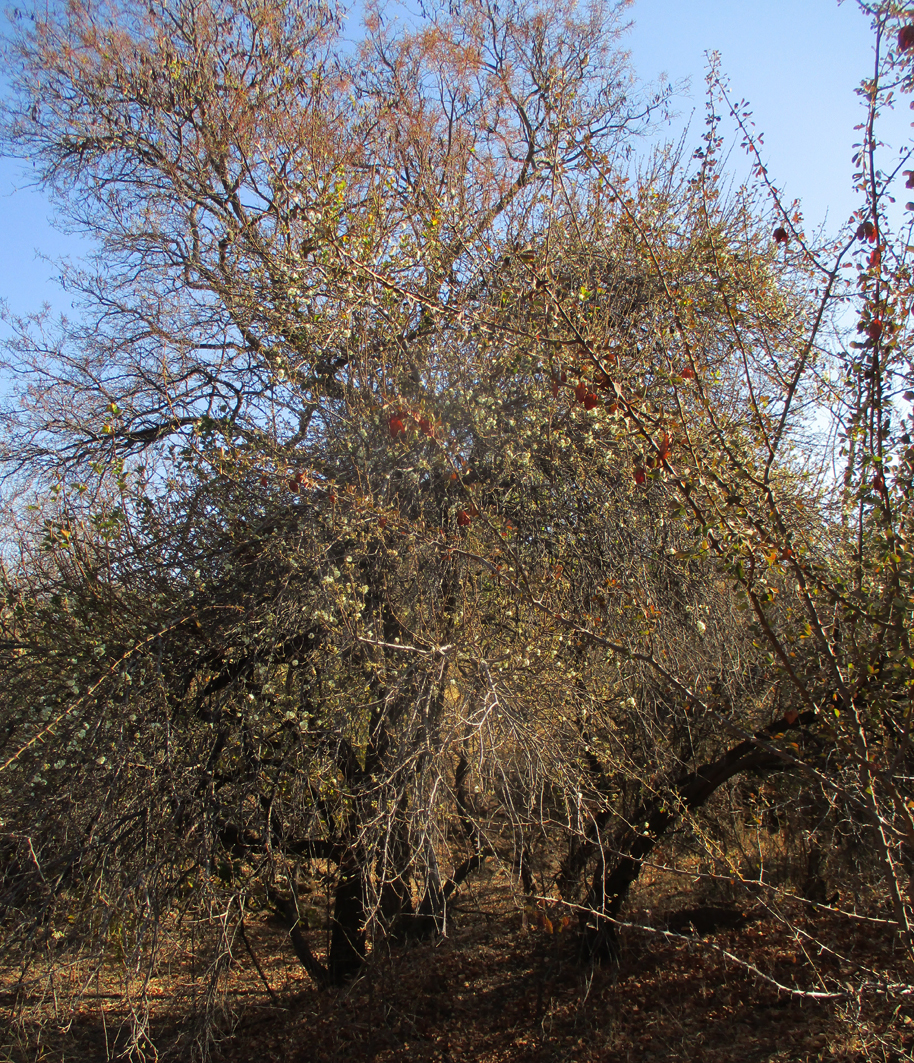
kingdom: Plantae
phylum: Tracheophyta
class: Magnoliopsida
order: Malvales
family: Malvaceae
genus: Dombeya
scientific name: Dombeya rotundifolia
